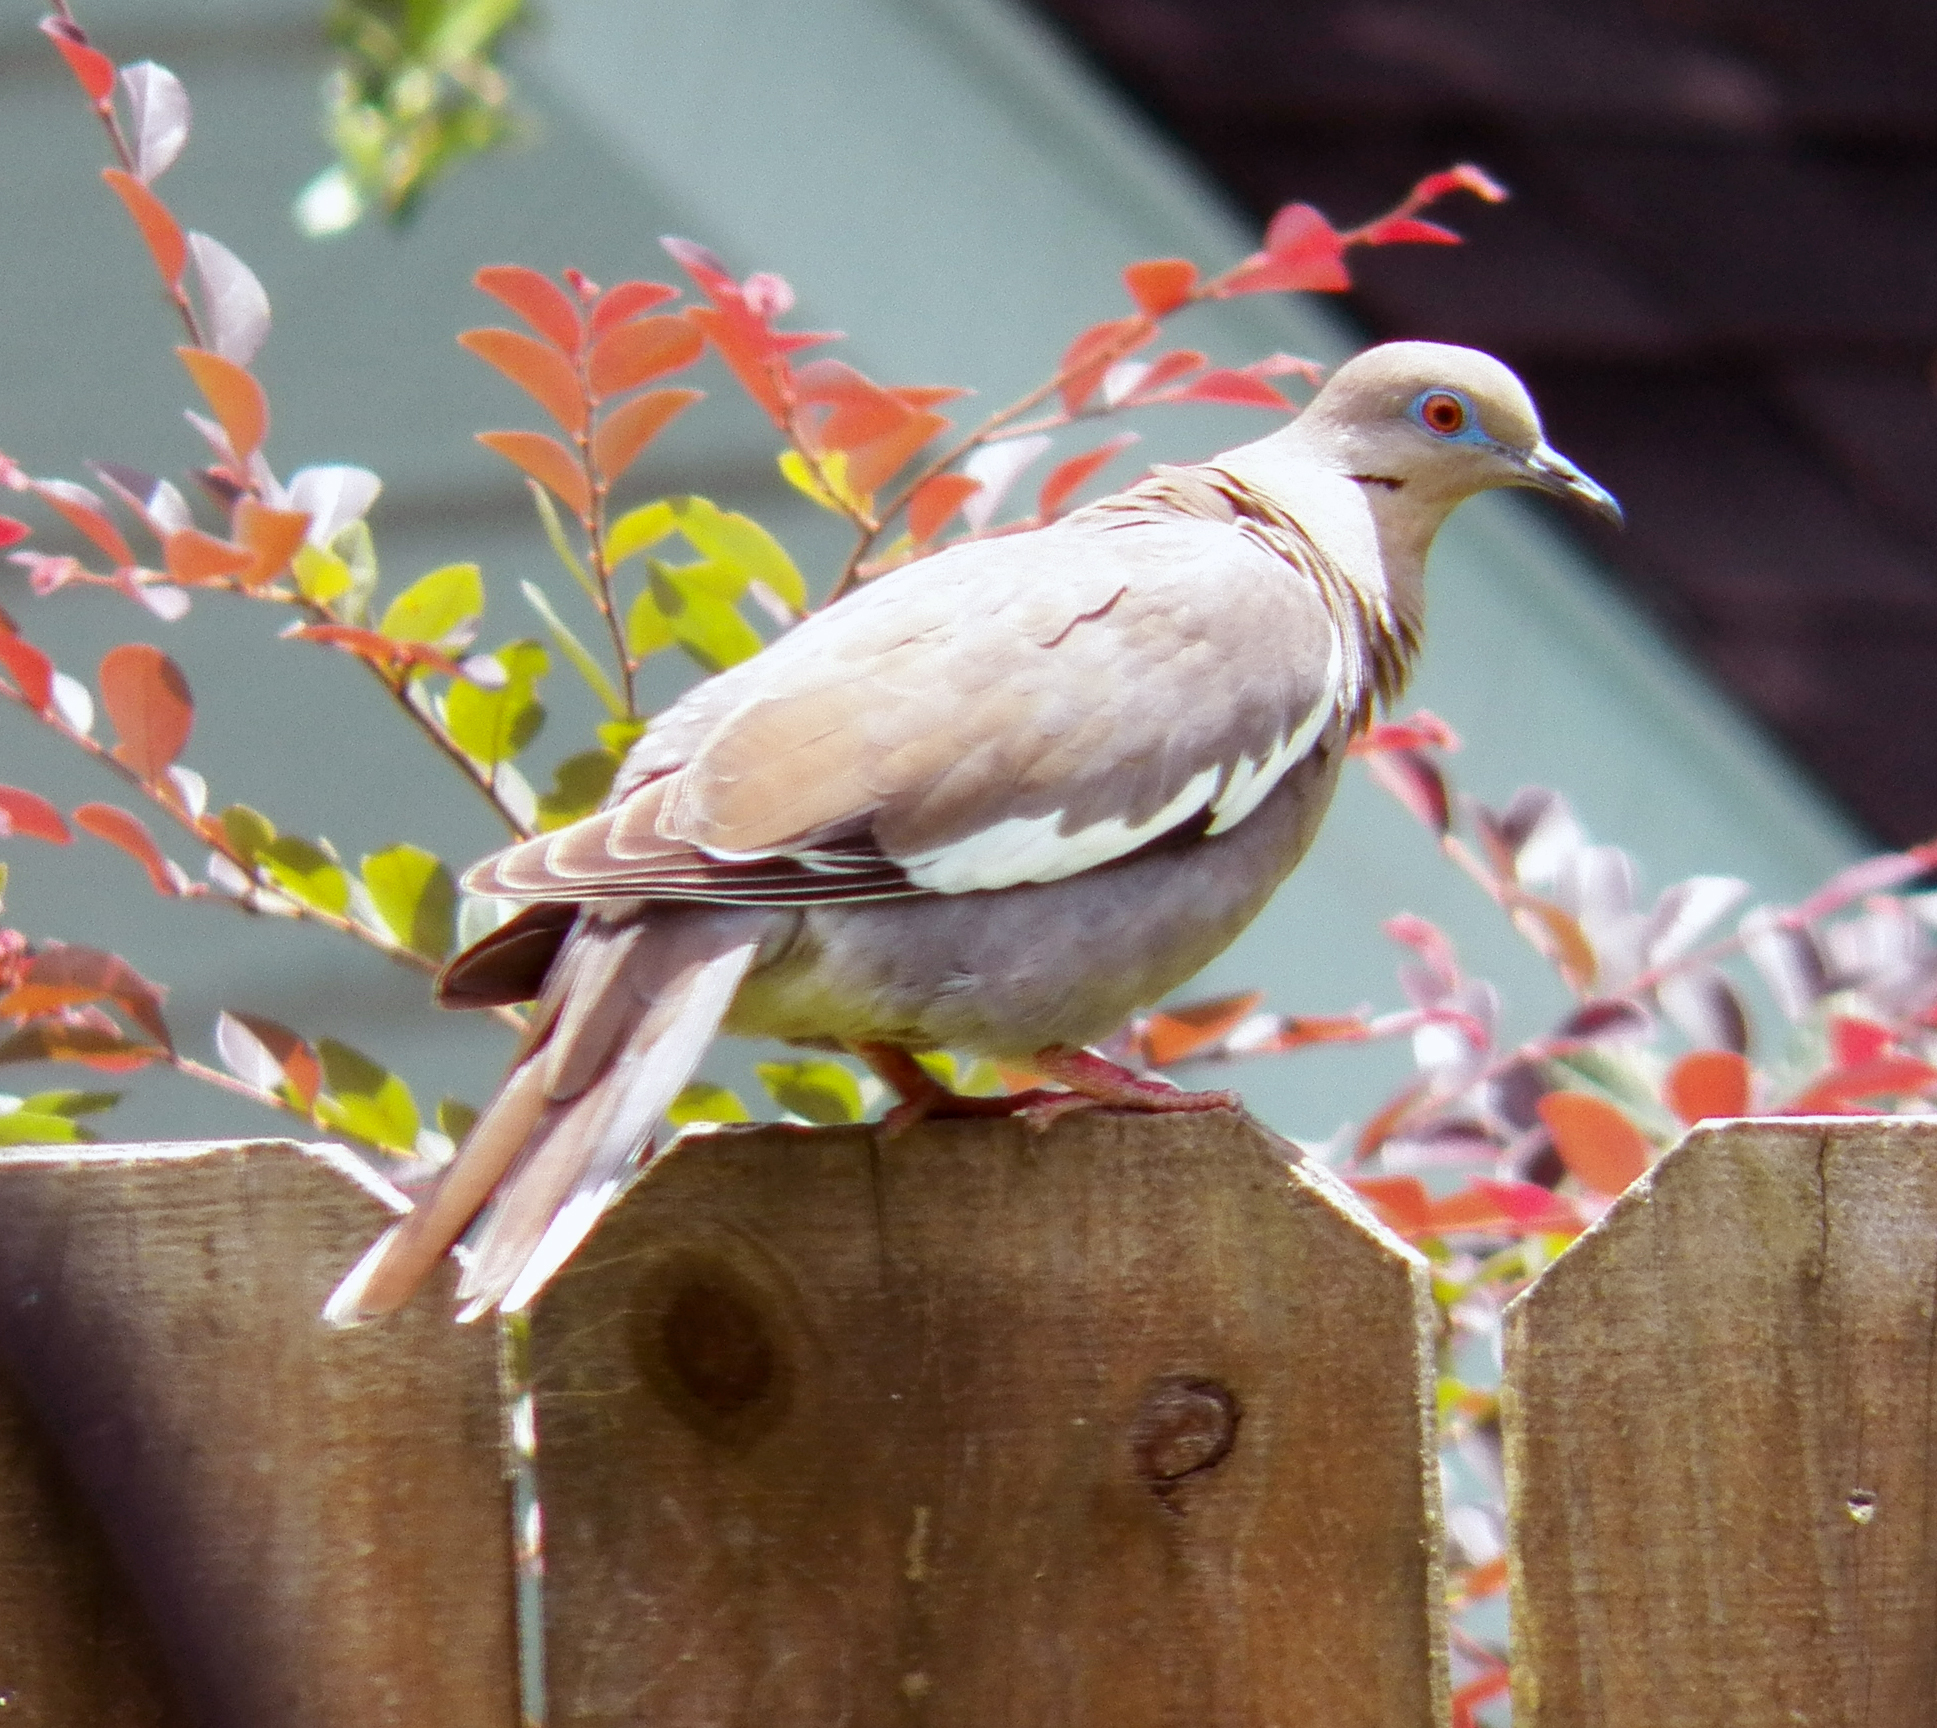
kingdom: Animalia
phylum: Chordata
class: Aves
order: Columbiformes
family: Columbidae
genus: Zenaida
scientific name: Zenaida asiatica
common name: White-winged dove
